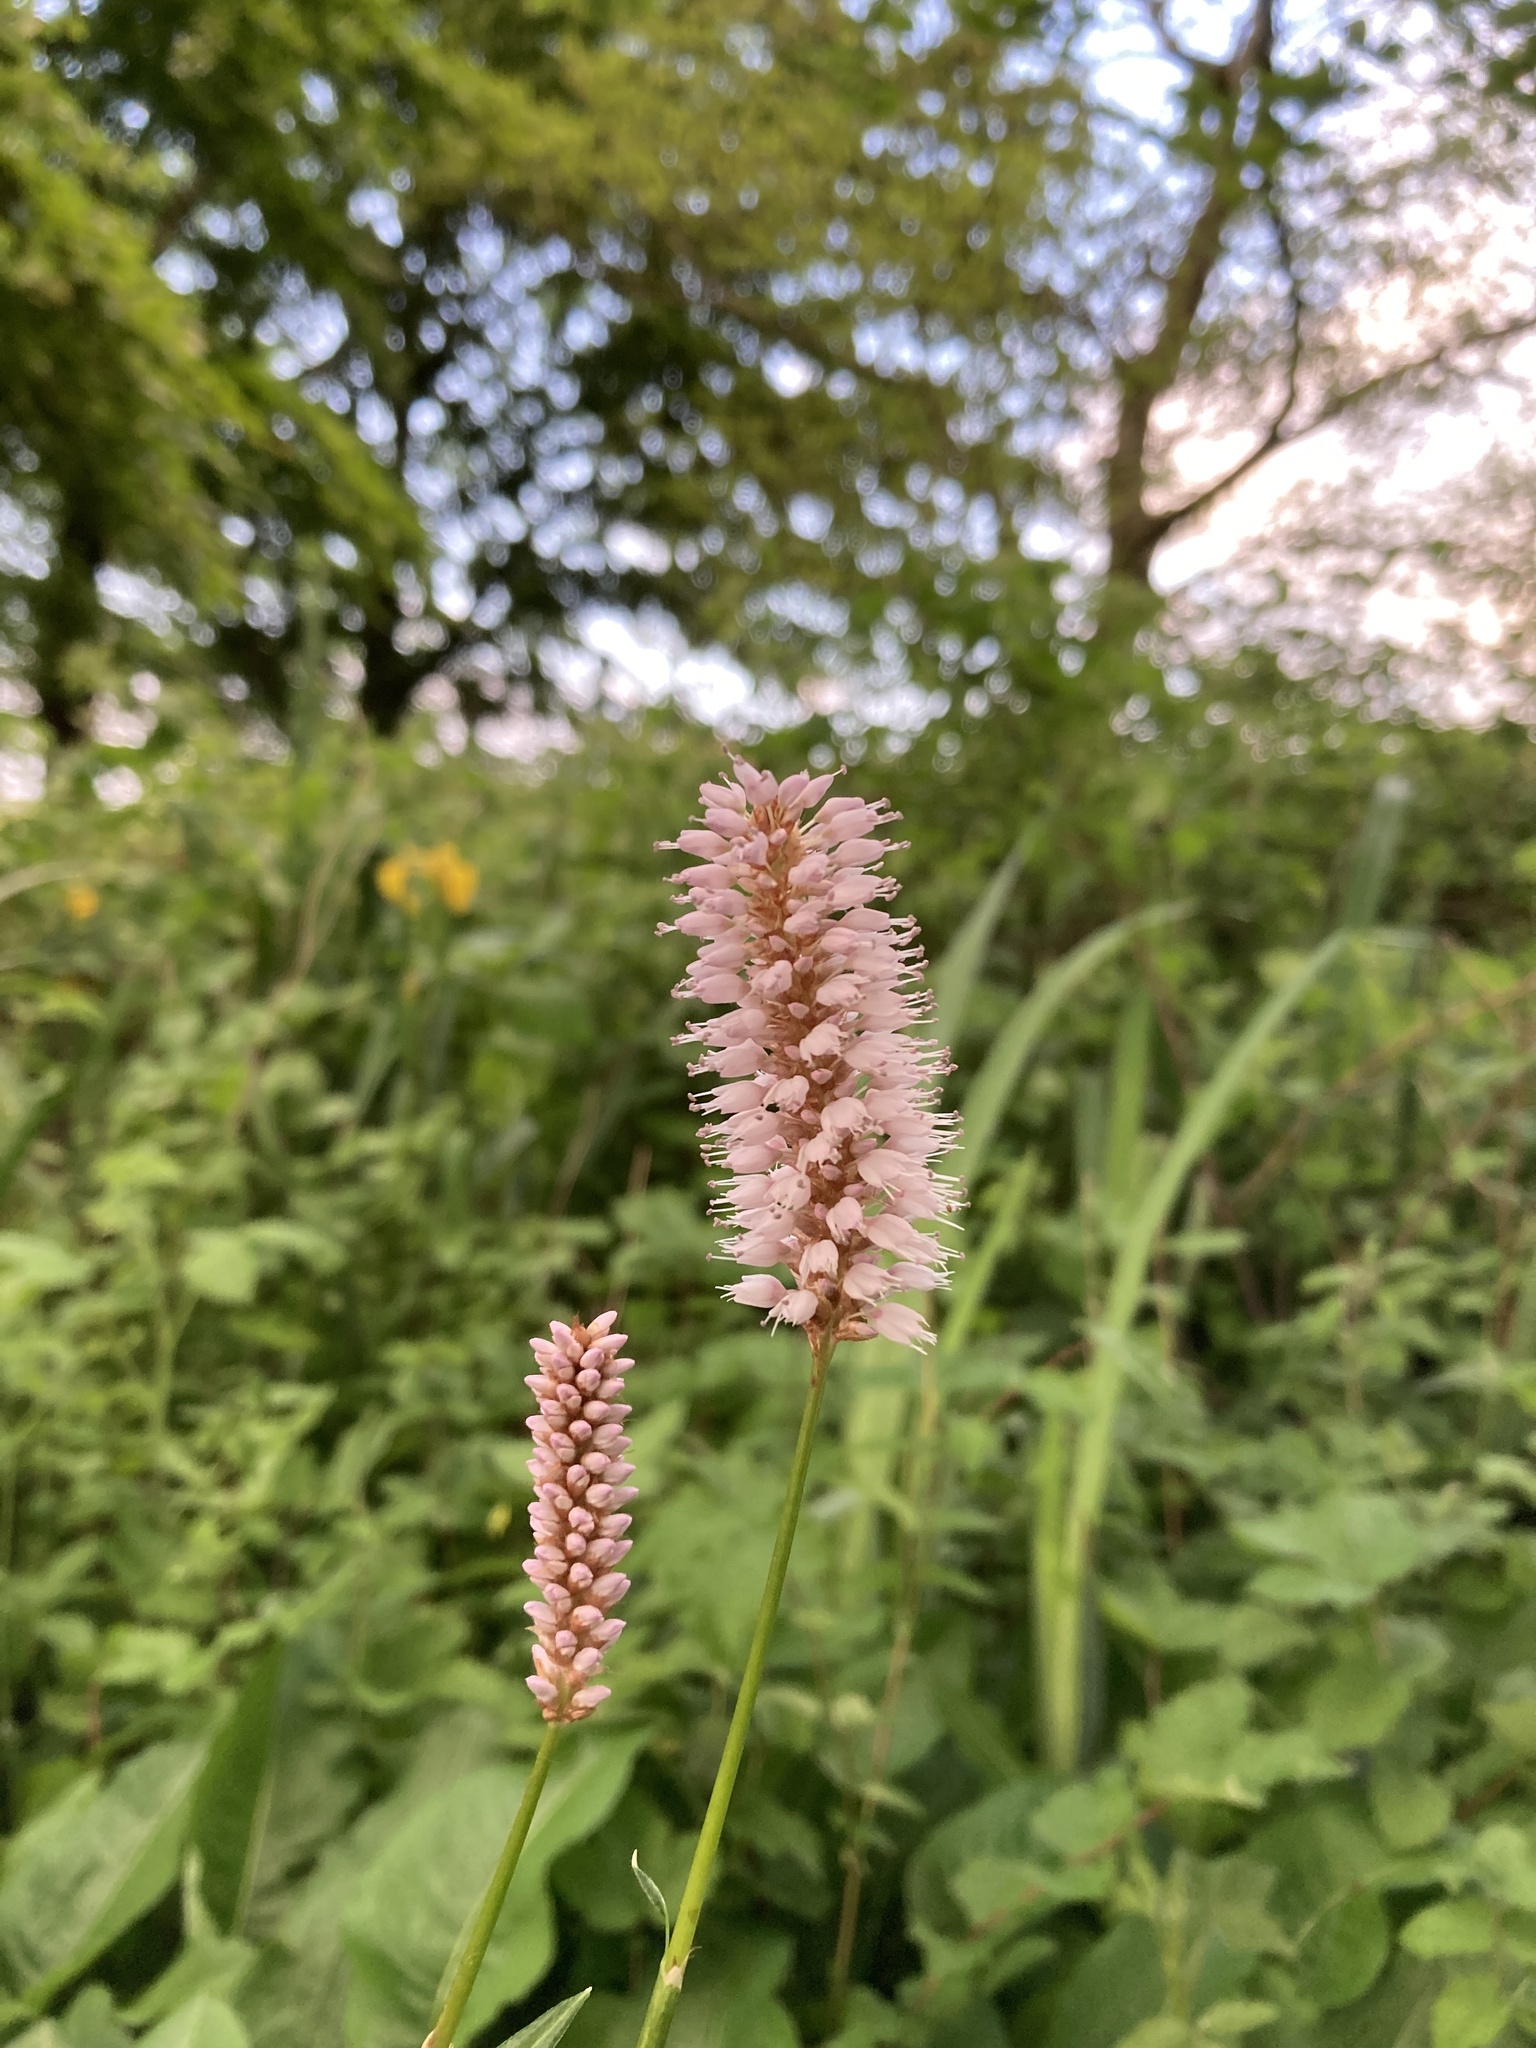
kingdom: Plantae
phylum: Tracheophyta
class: Magnoliopsida
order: Caryophyllales
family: Polygonaceae
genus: Bistorta
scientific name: Bistorta officinalis
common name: Common bistort
